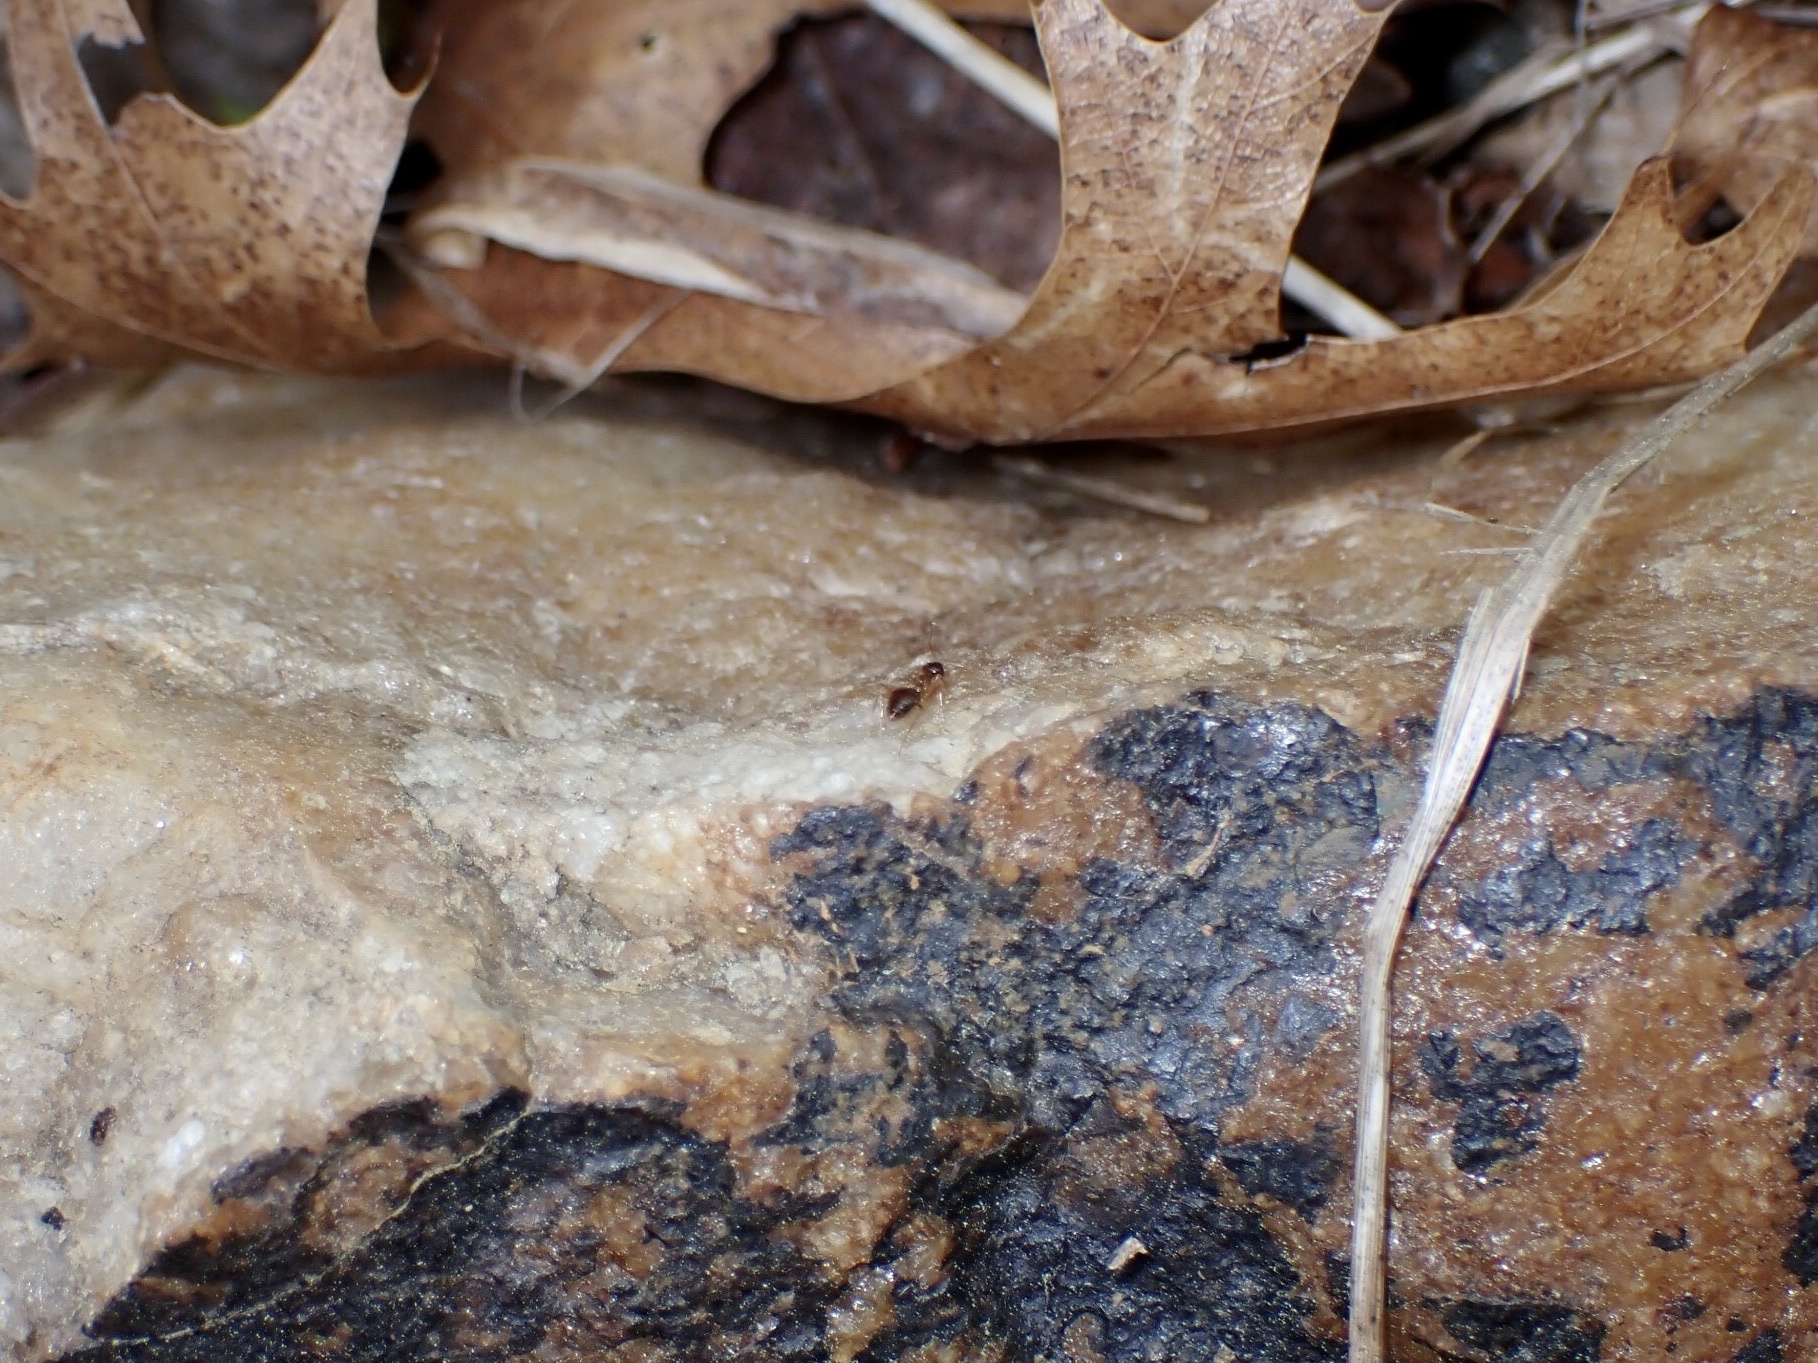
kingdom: Animalia
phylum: Arthropoda
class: Insecta
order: Hymenoptera
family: Formicidae
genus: Prenolepis
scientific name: Prenolepis imparis
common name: Small honey ant
